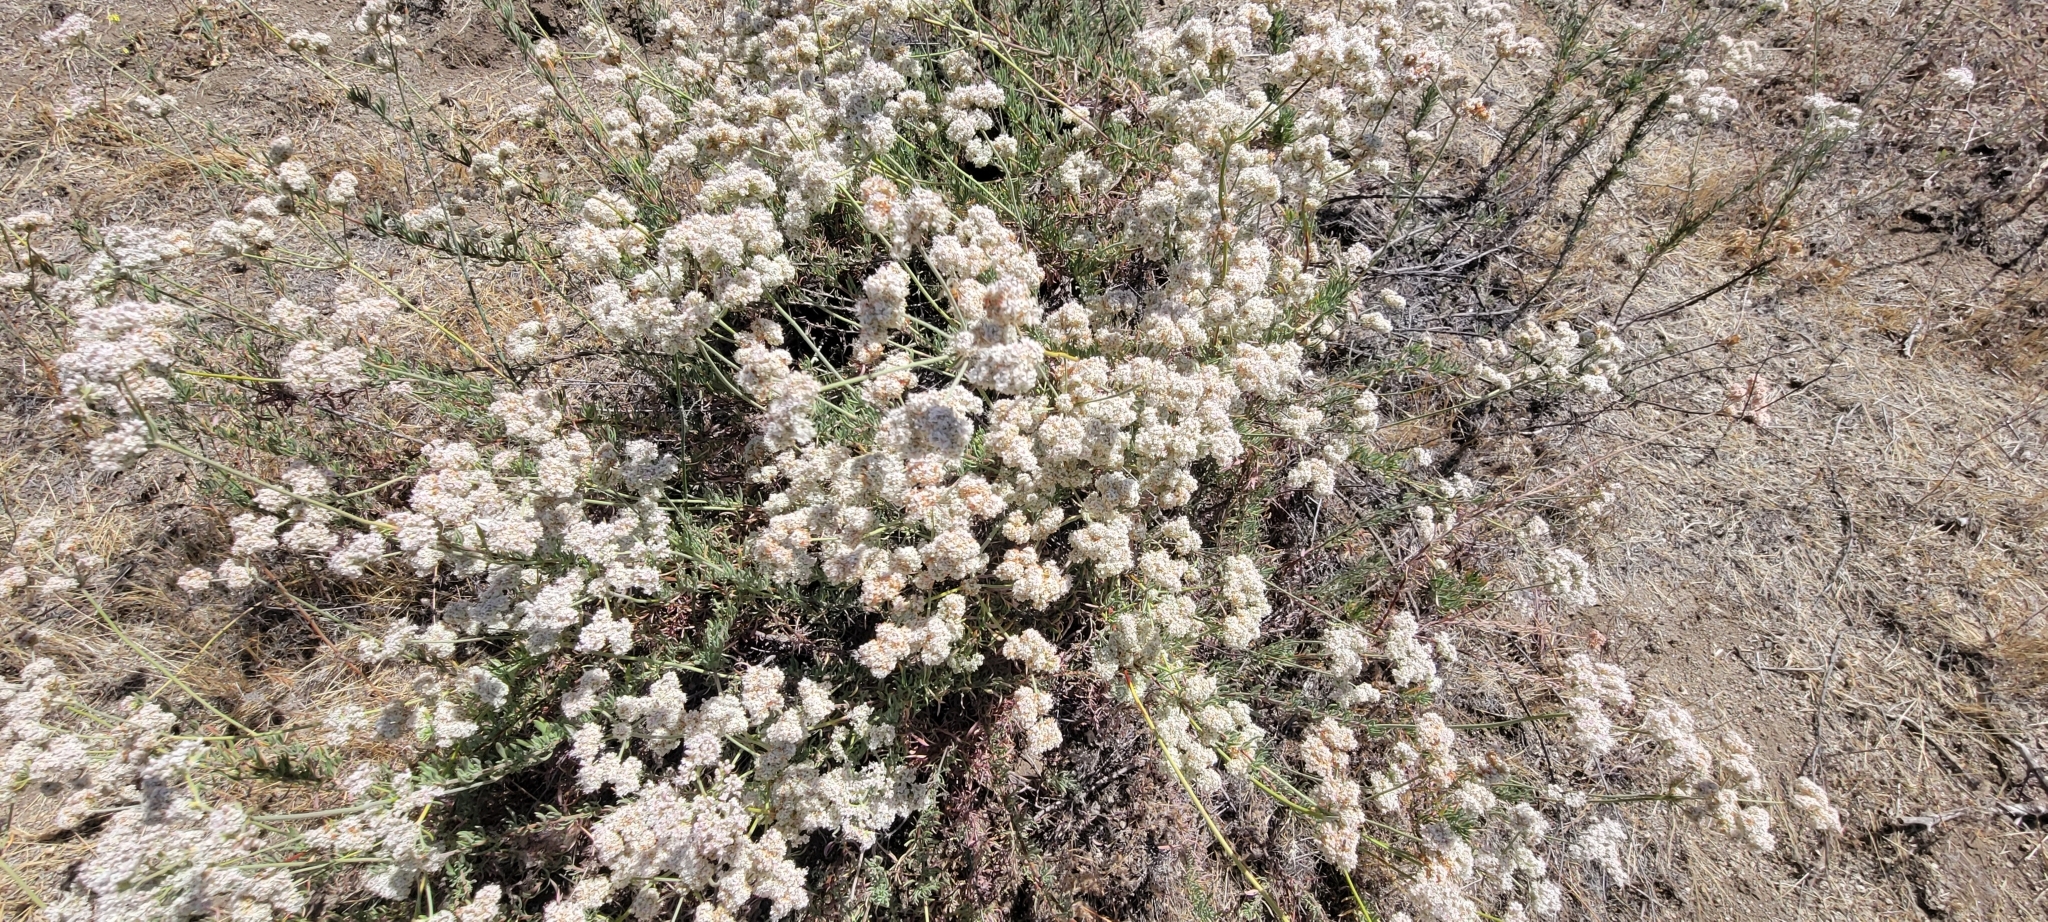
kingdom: Plantae
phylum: Tracheophyta
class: Magnoliopsida
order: Caryophyllales
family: Polygonaceae
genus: Eriogonum
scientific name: Eriogonum fasciculatum
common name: California wild buckwheat
